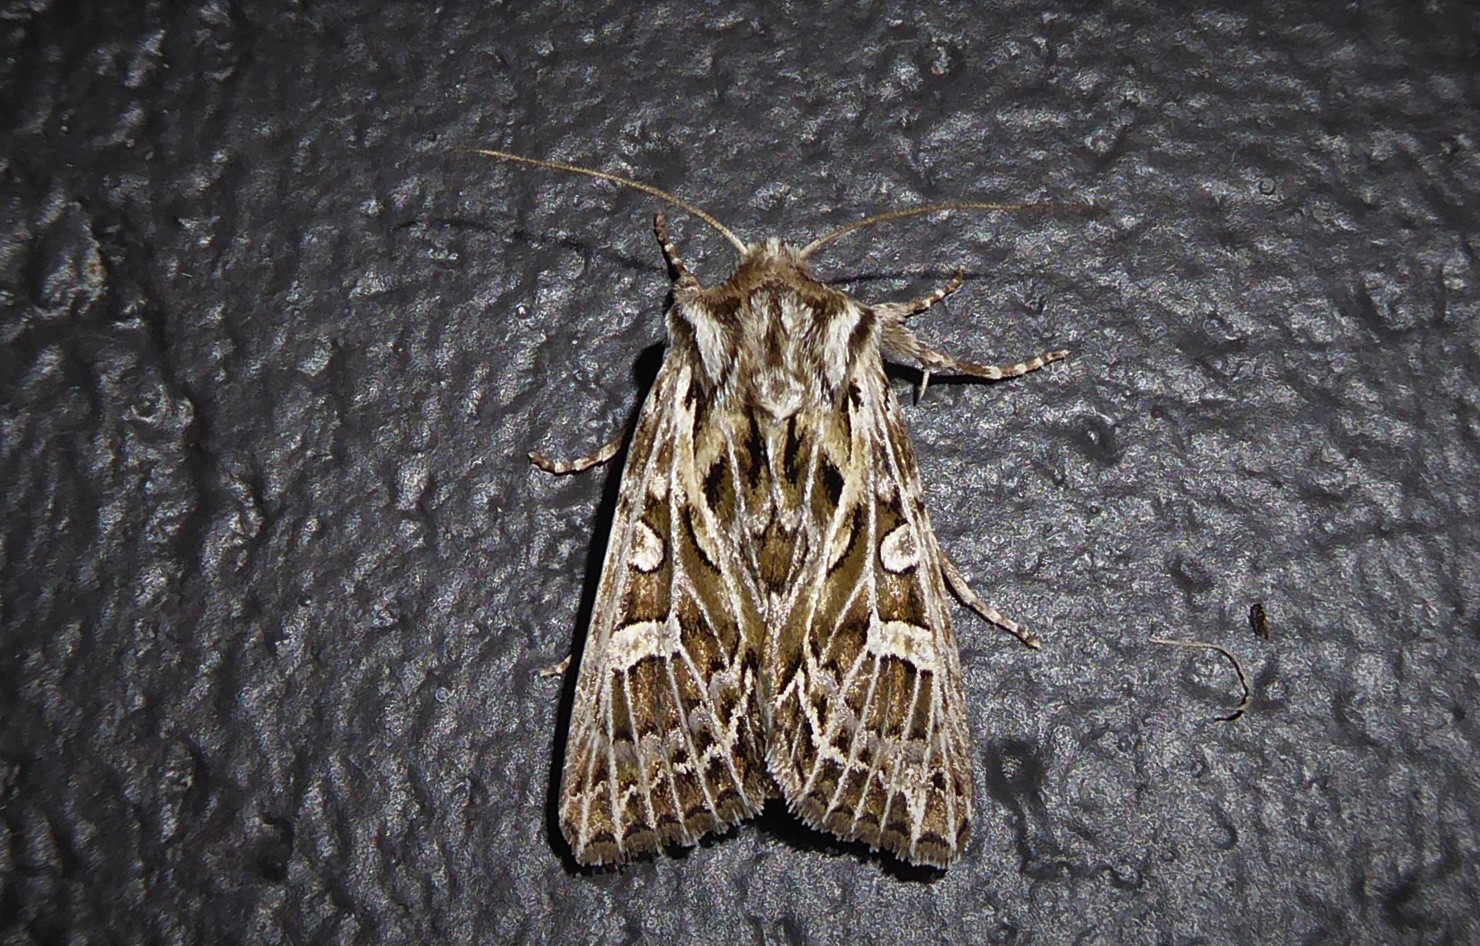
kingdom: Animalia
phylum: Arthropoda
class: Insecta
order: Lepidoptera
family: Noctuidae
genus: Ichneutica
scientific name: Ichneutica
